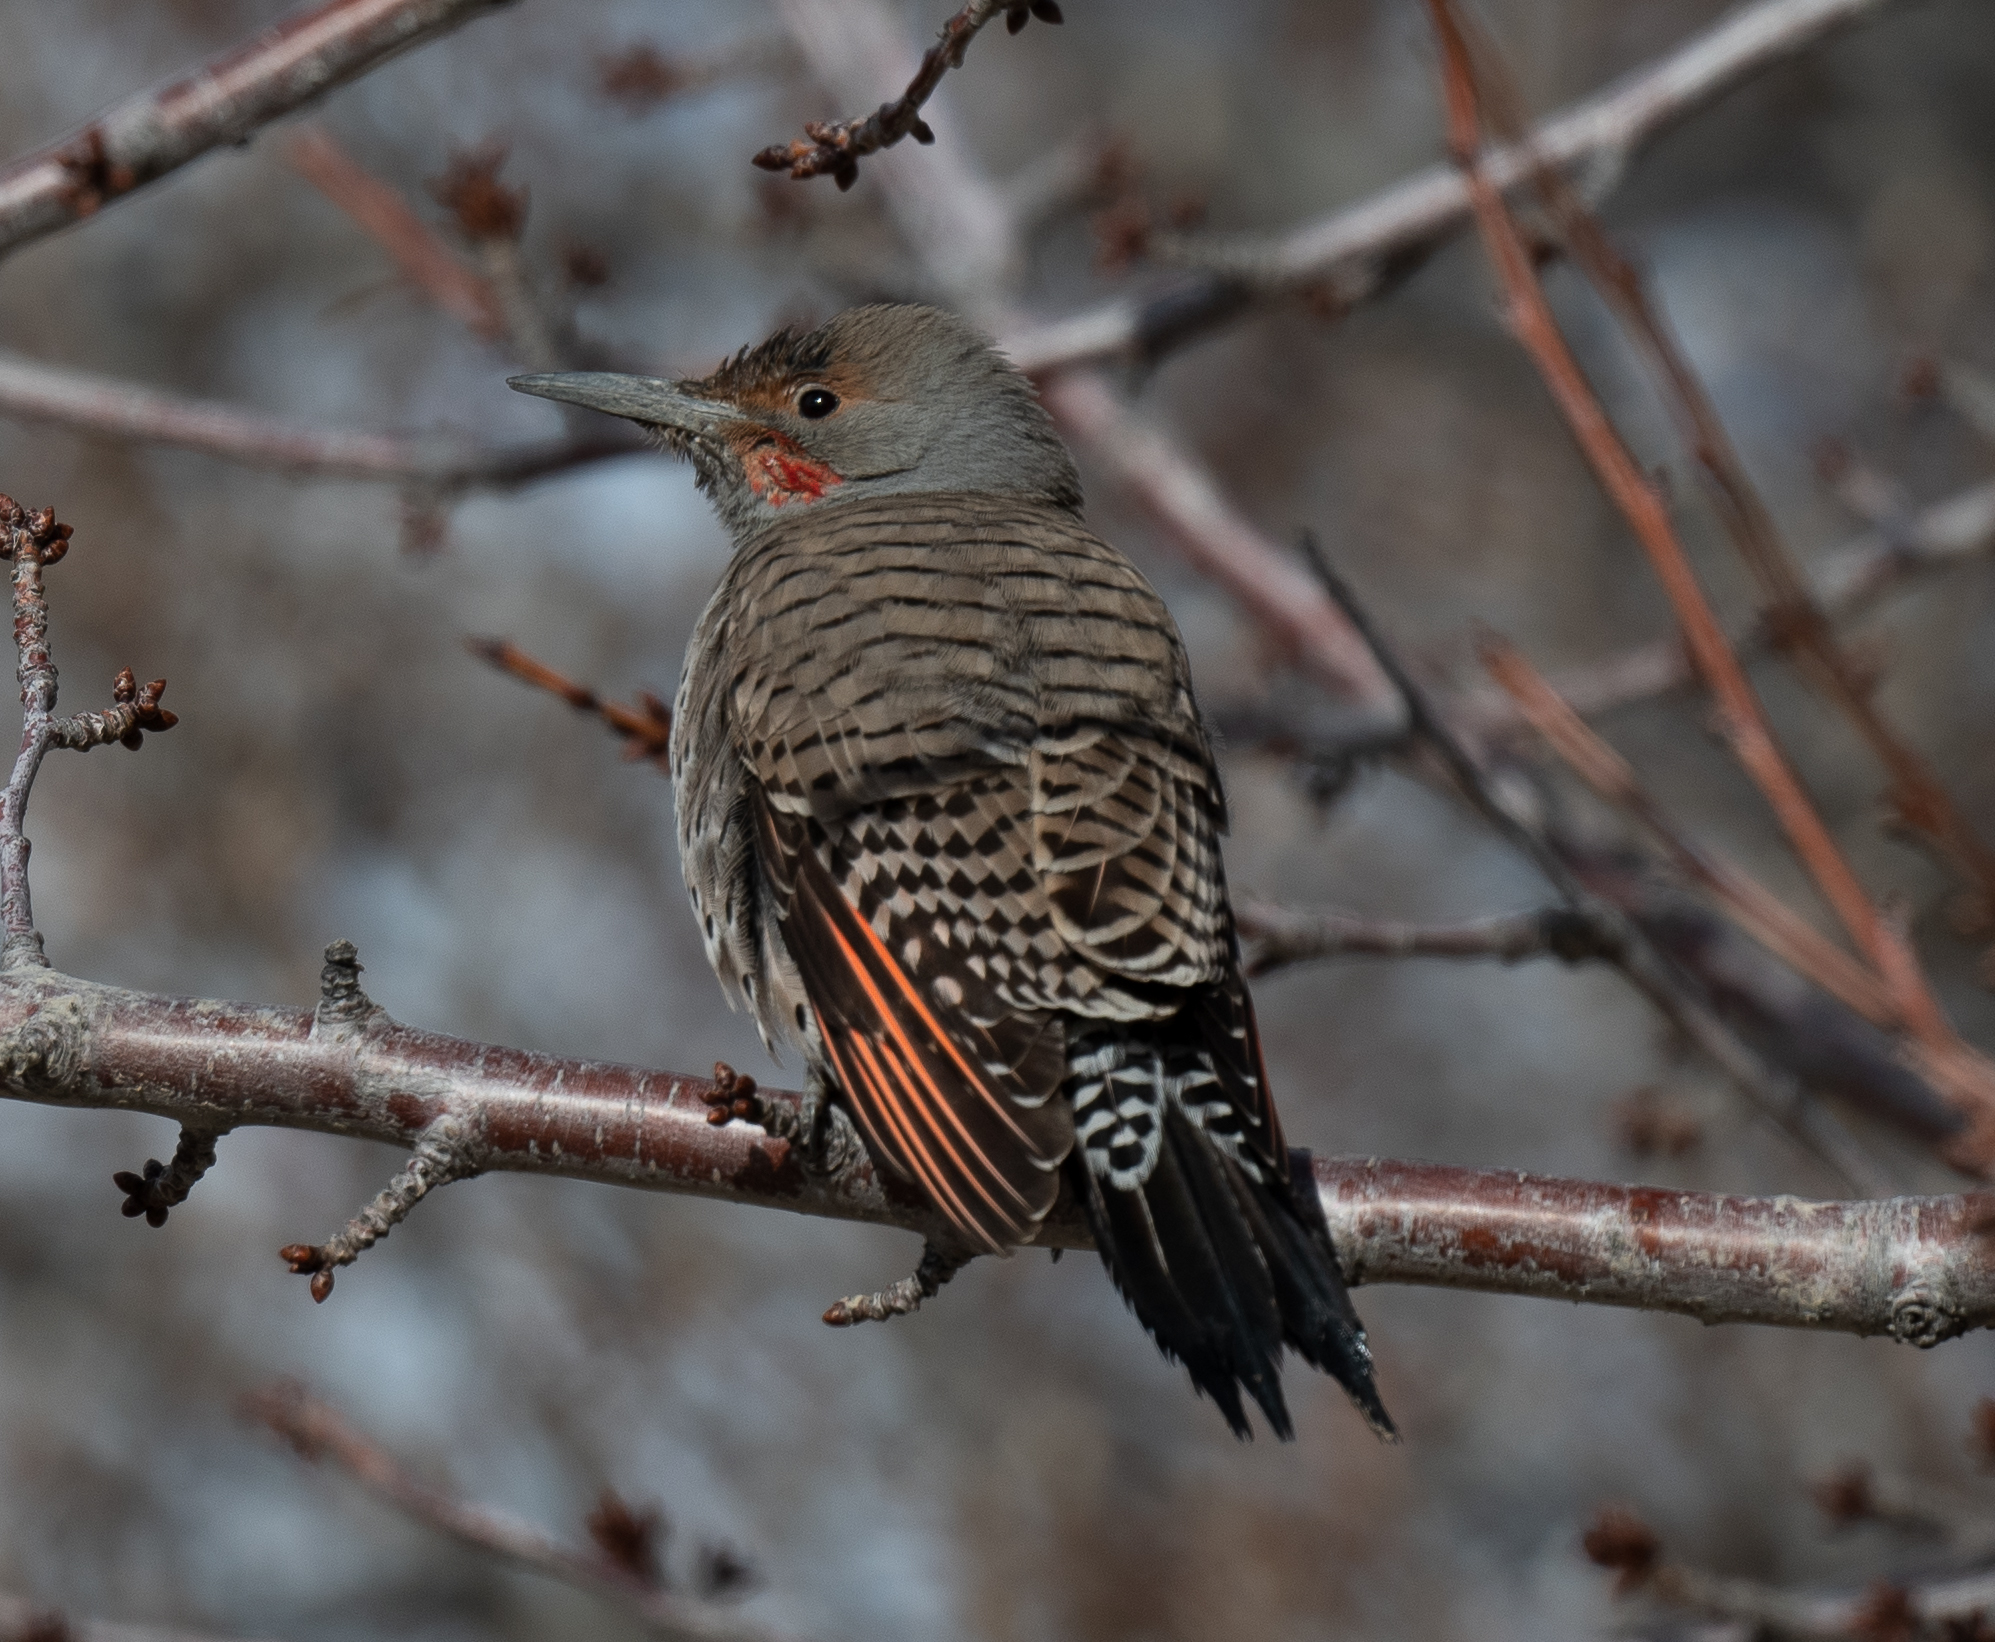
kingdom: Animalia
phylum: Chordata
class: Aves
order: Piciformes
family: Picidae
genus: Colaptes
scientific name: Colaptes auratus
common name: Northern flicker
